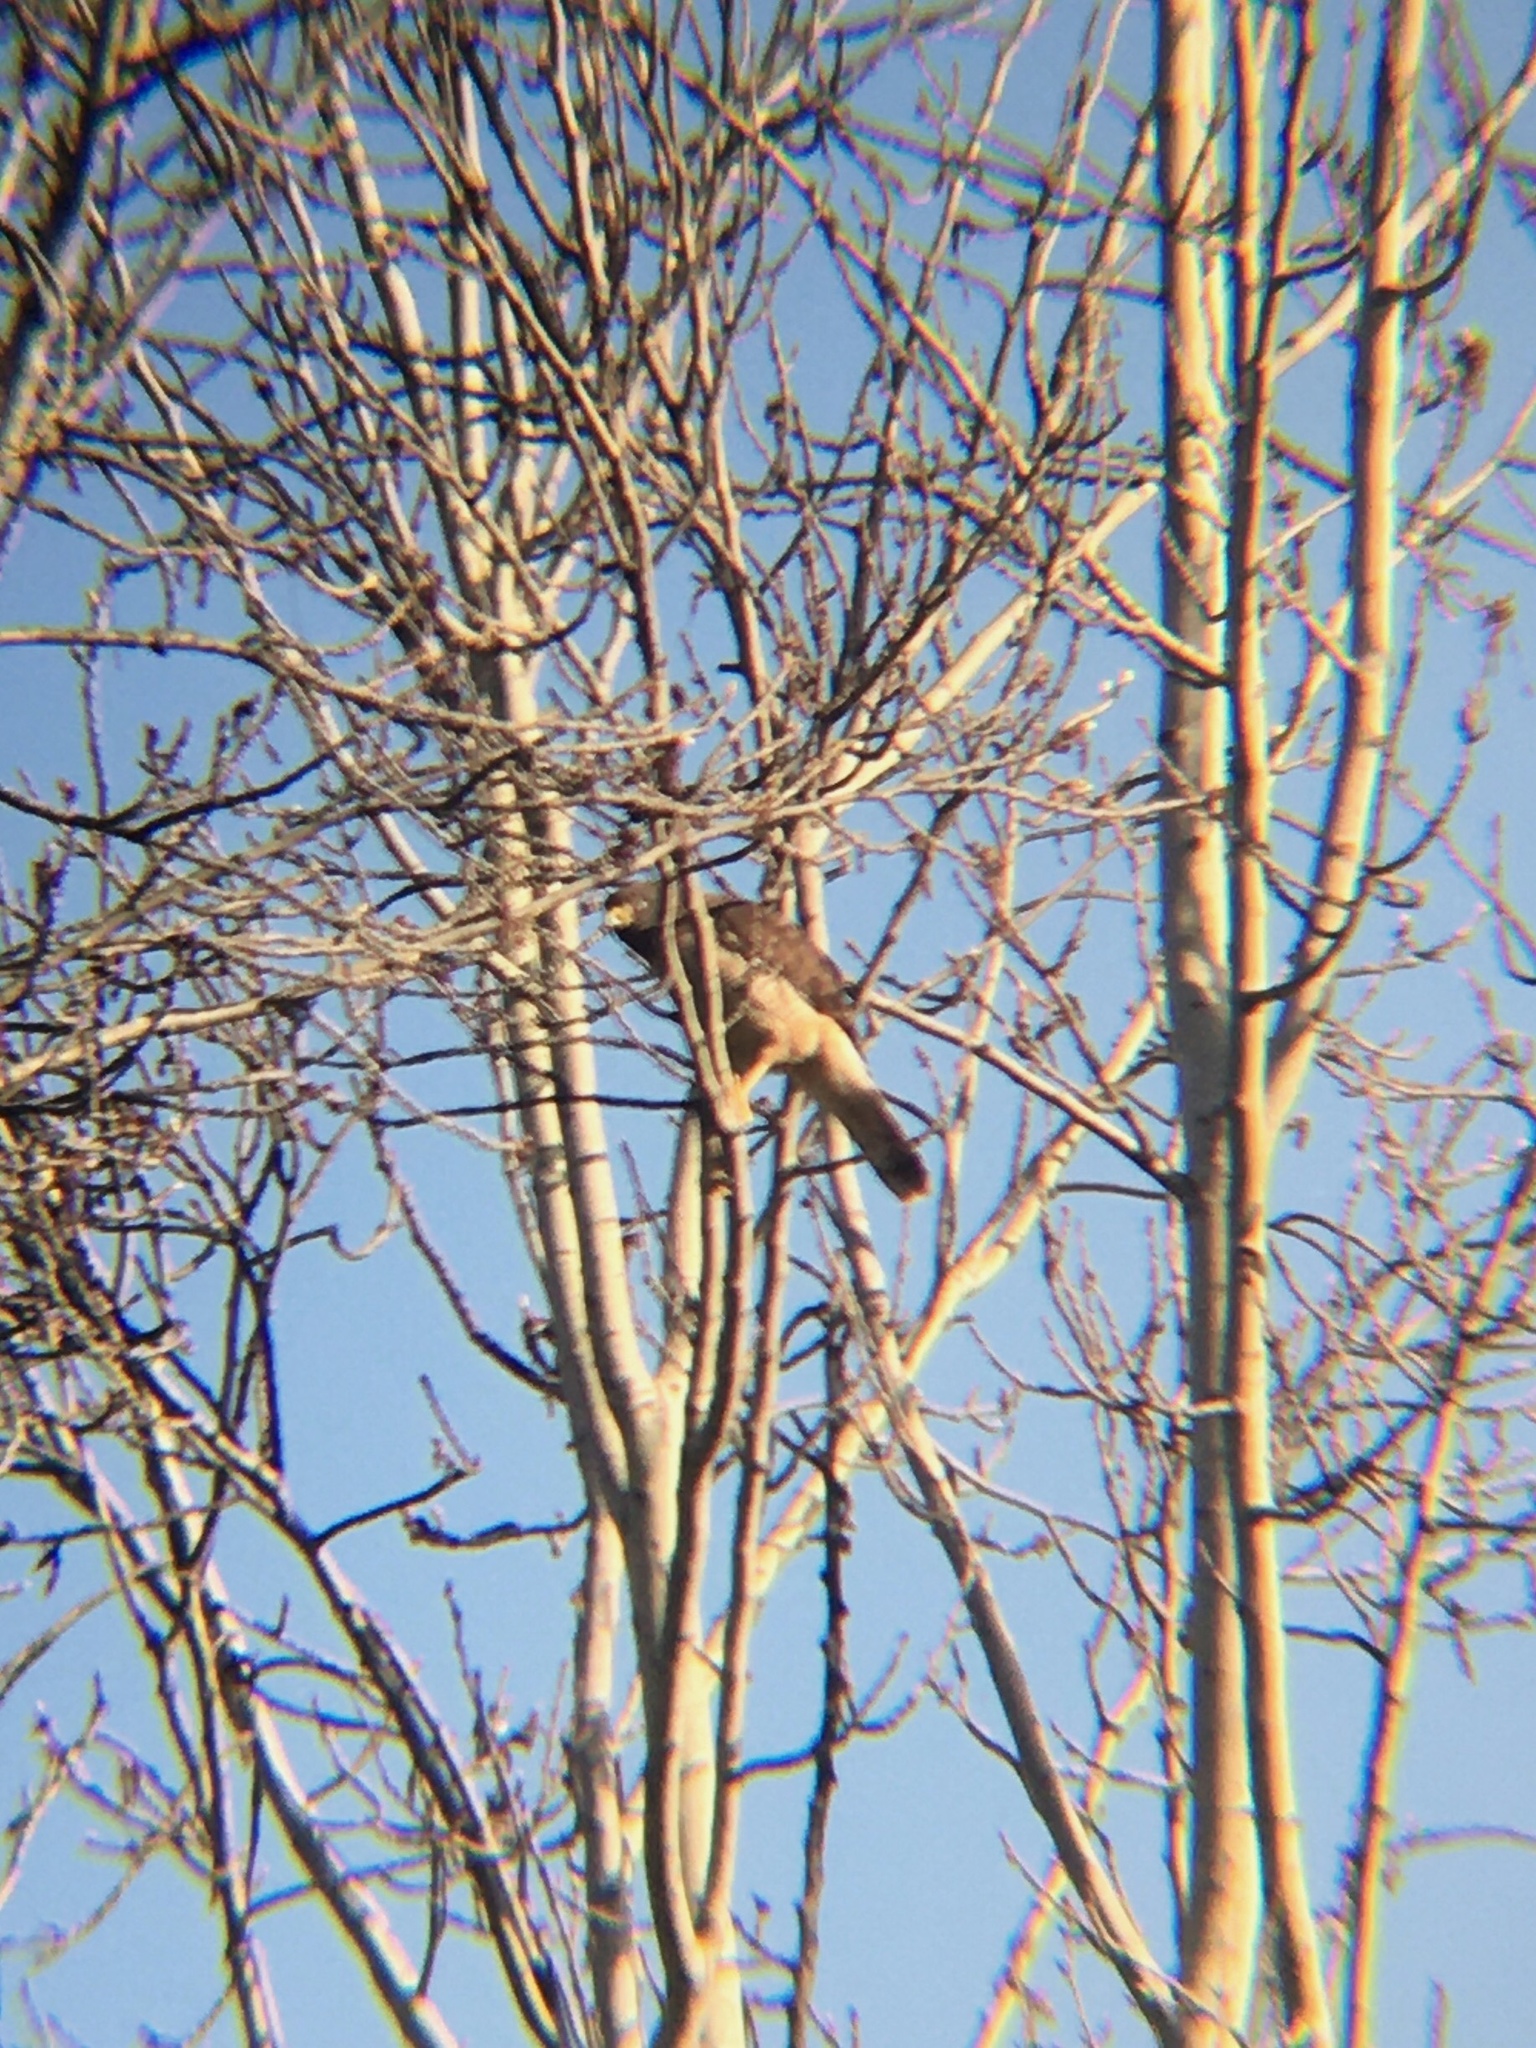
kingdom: Animalia
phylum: Chordata
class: Aves
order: Accipitriformes
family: Accipitridae
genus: Rupornis
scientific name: Rupornis magnirostris
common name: Roadside hawk
